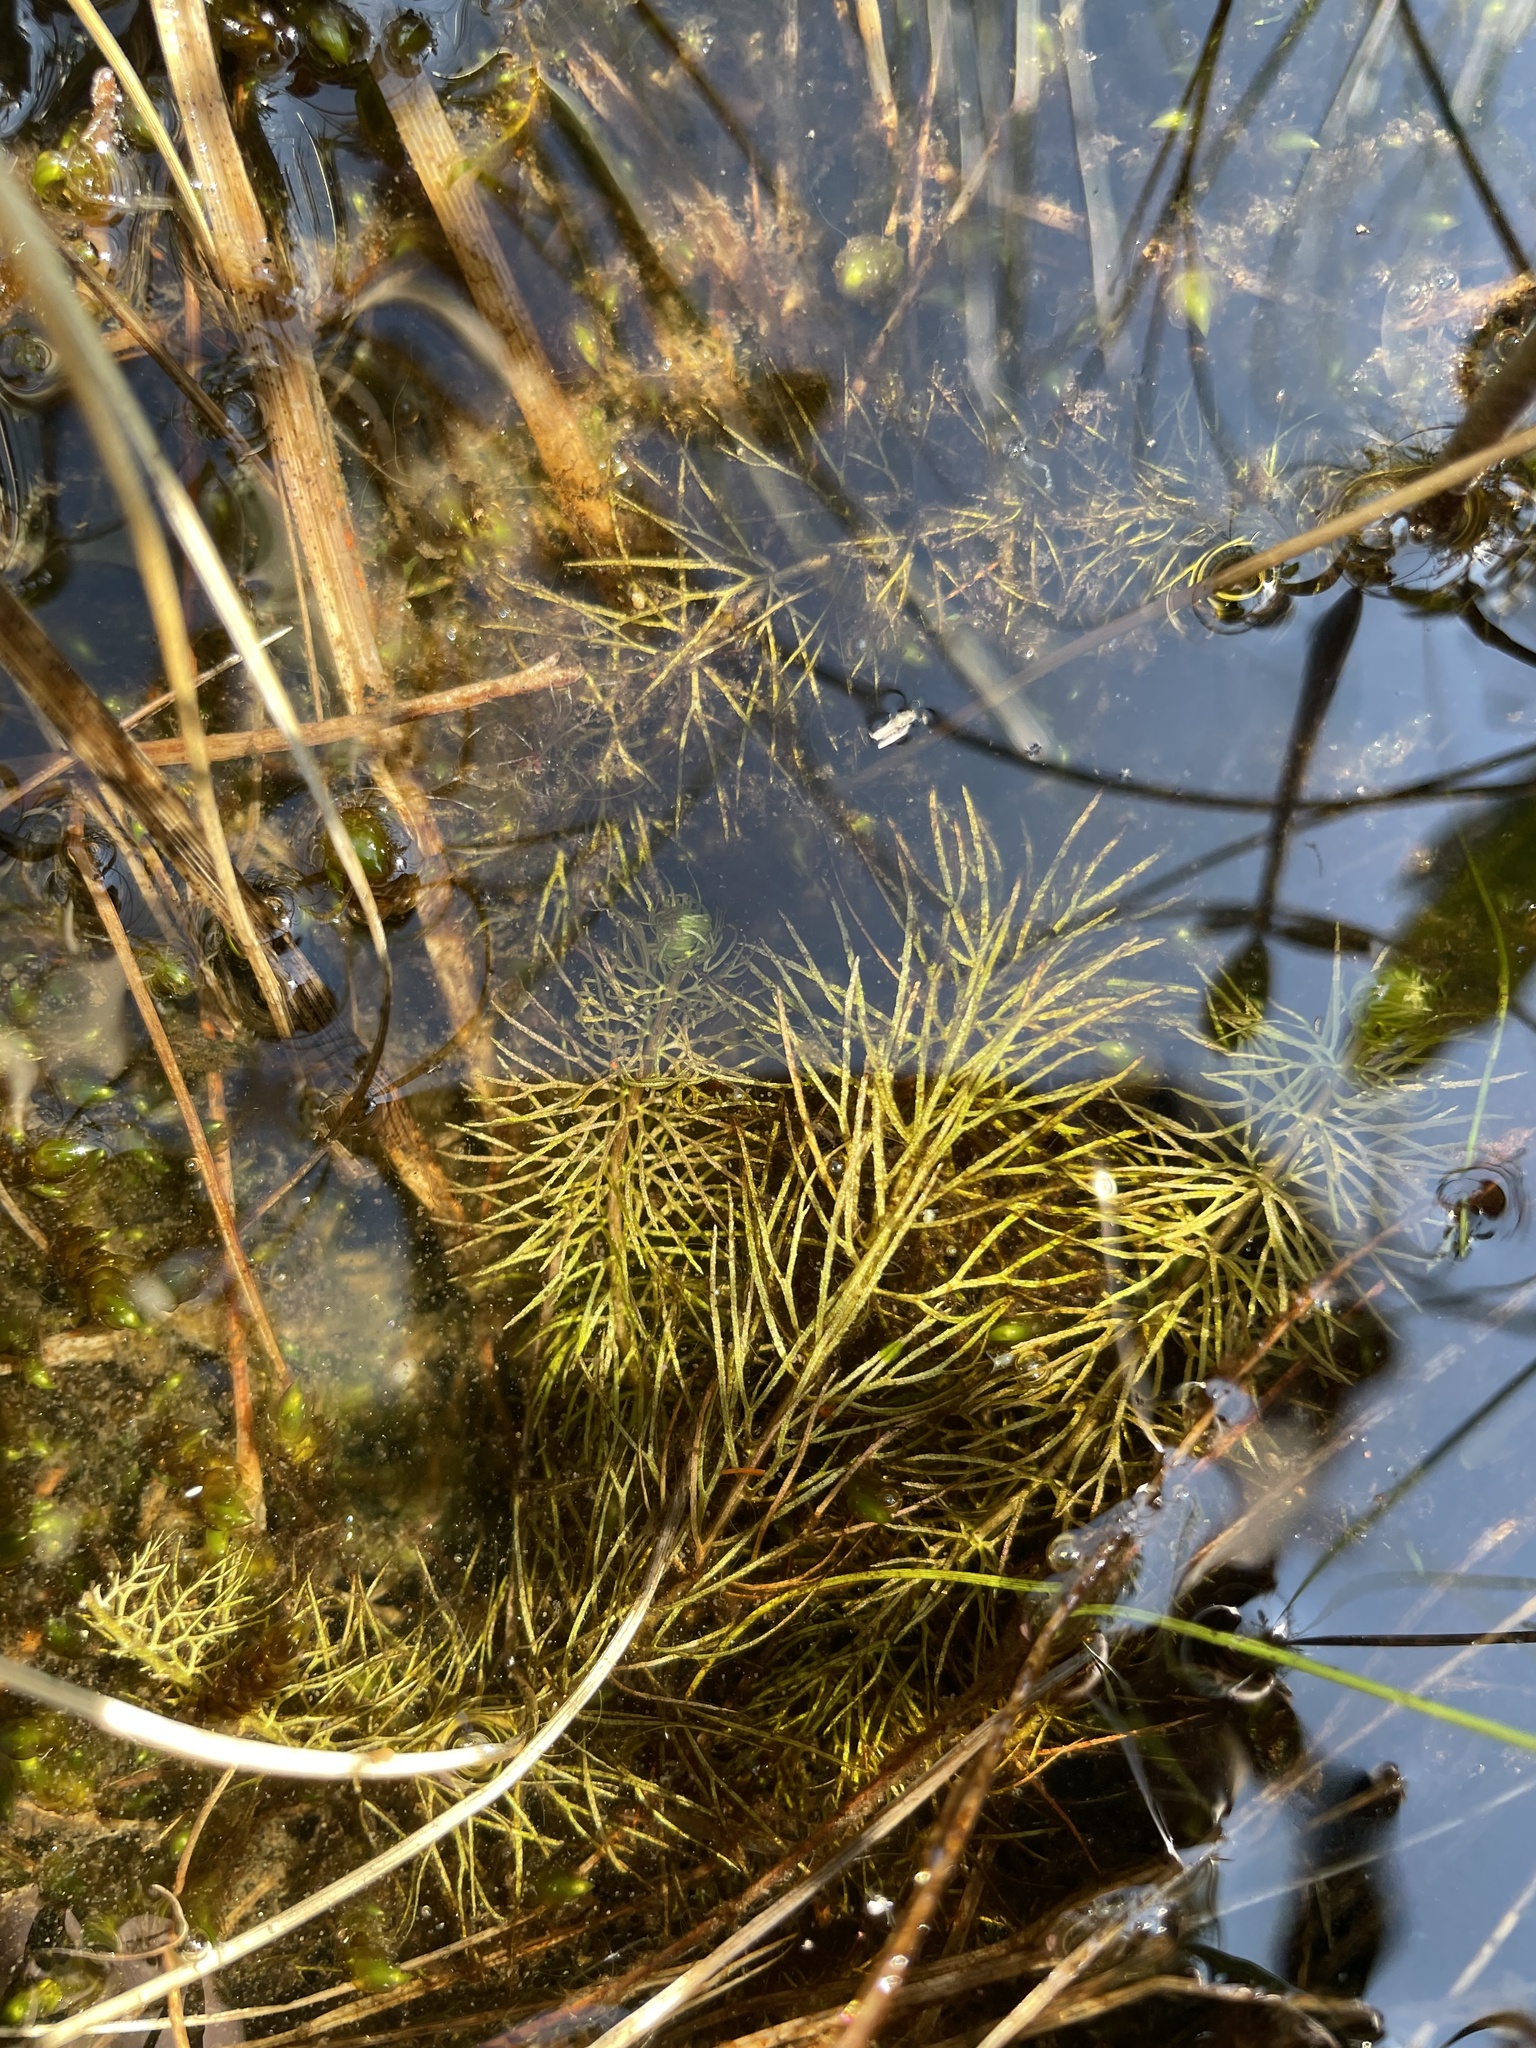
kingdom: Plantae
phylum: Tracheophyta
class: Magnoliopsida
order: Lamiales
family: Lentibulariaceae
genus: Utricularia
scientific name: Utricularia intermedia
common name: Intermediate bladderwort
